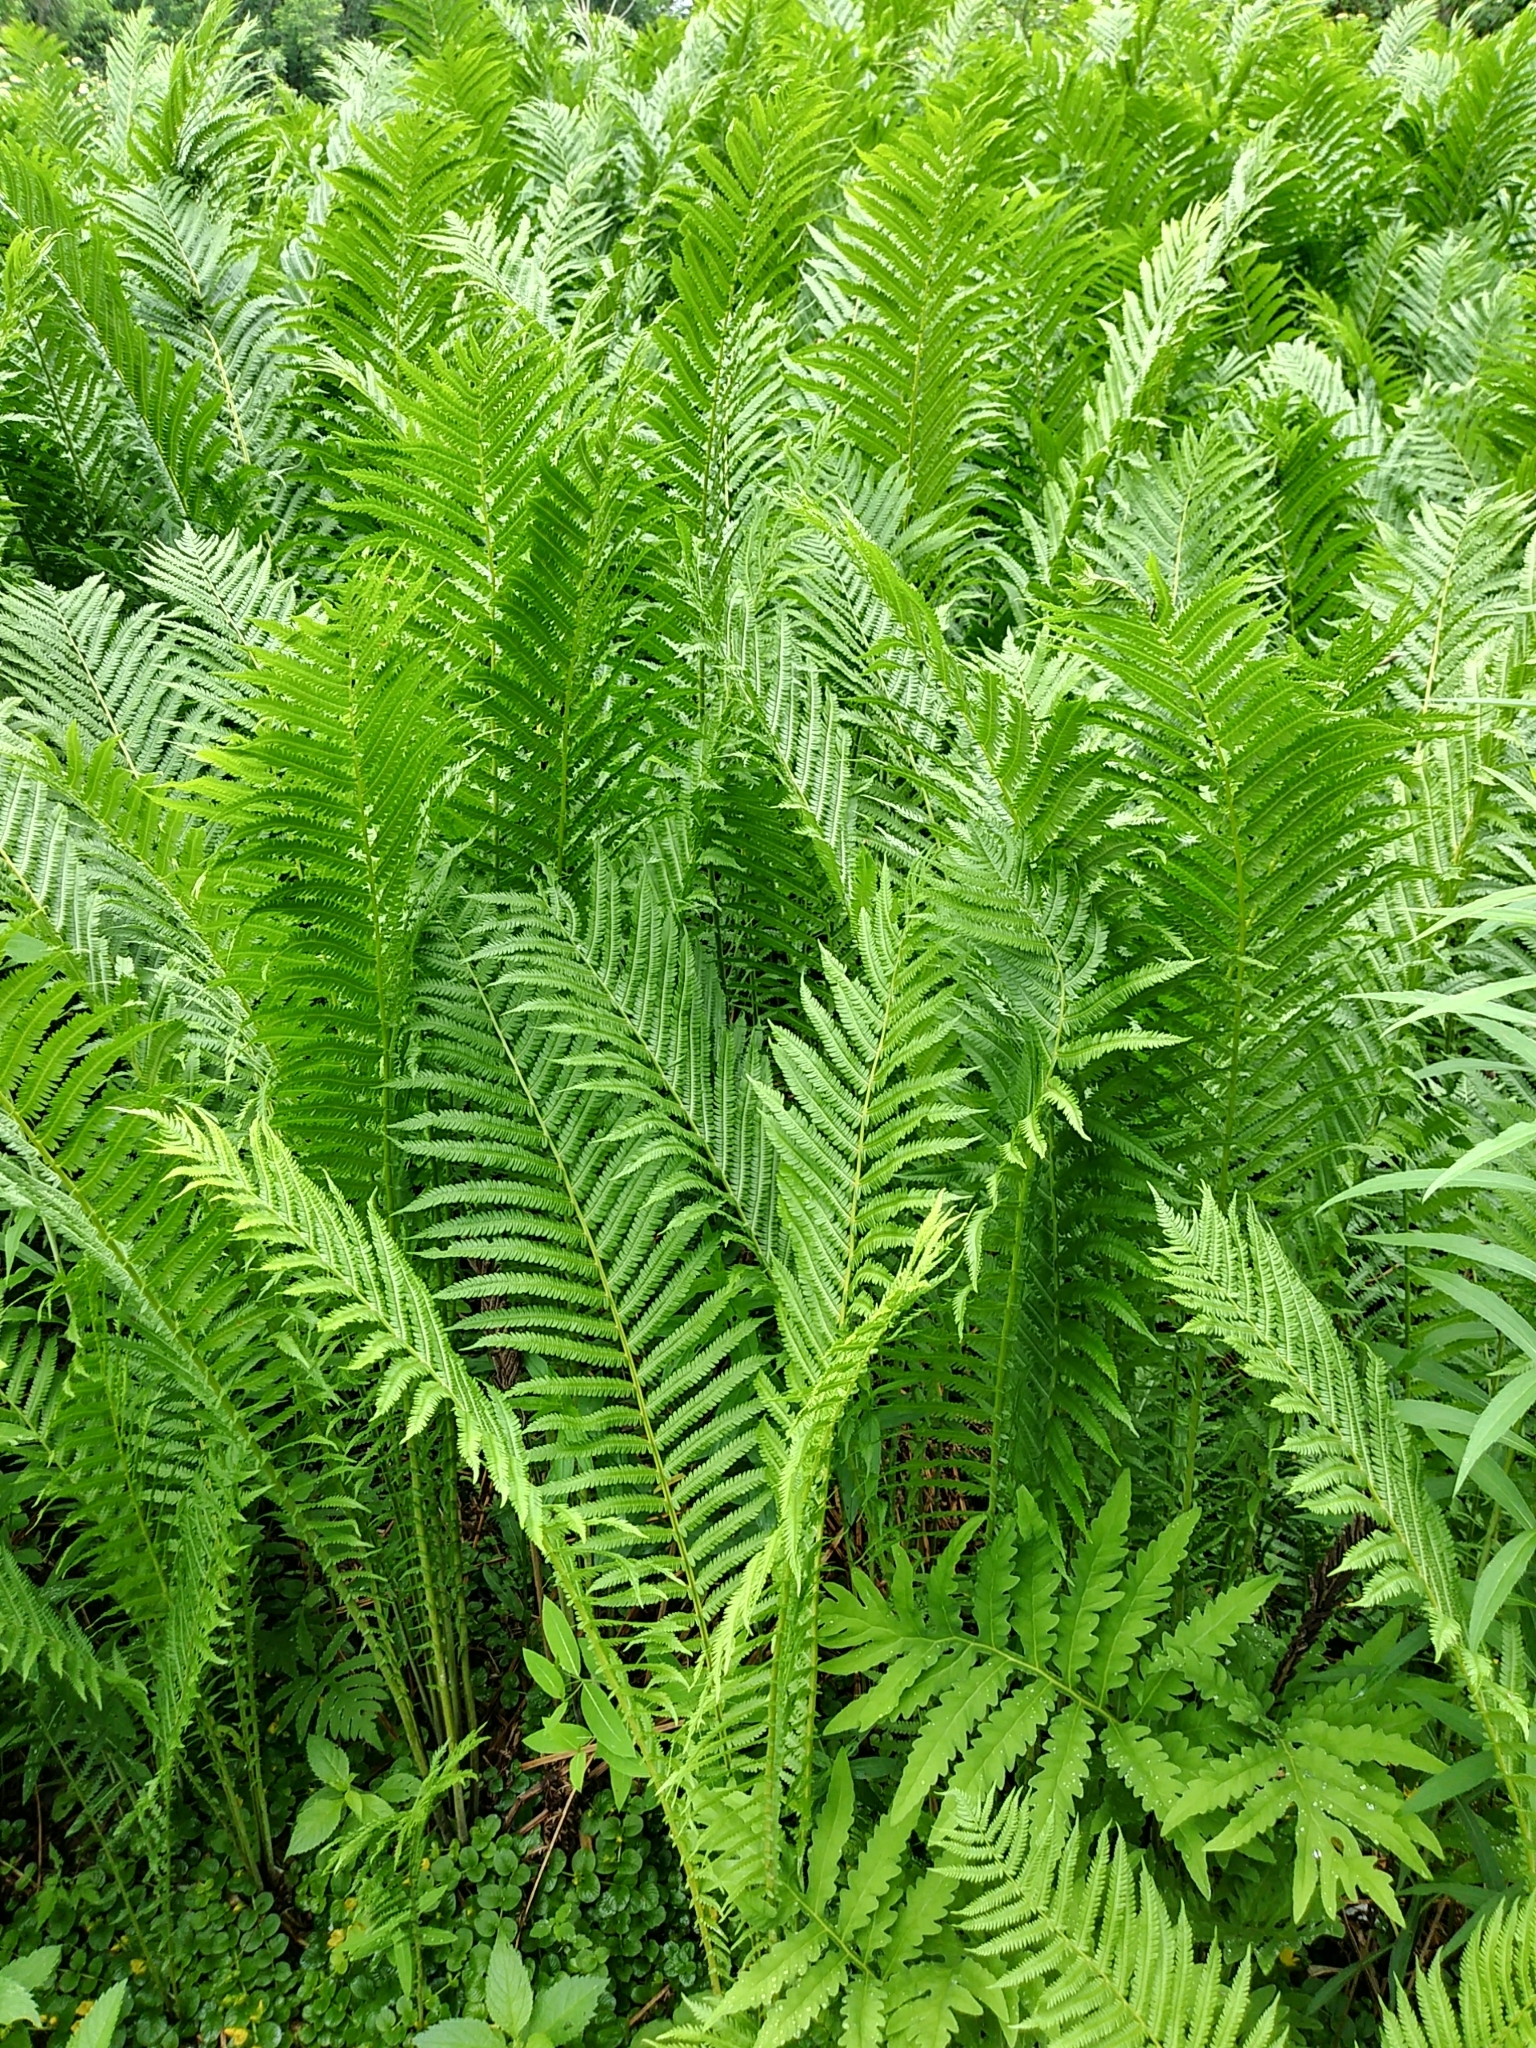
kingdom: Plantae
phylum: Tracheophyta
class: Polypodiopsida
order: Polypodiales
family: Onocleaceae
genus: Matteuccia
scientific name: Matteuccia struthiopteris
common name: Ostrich fern
